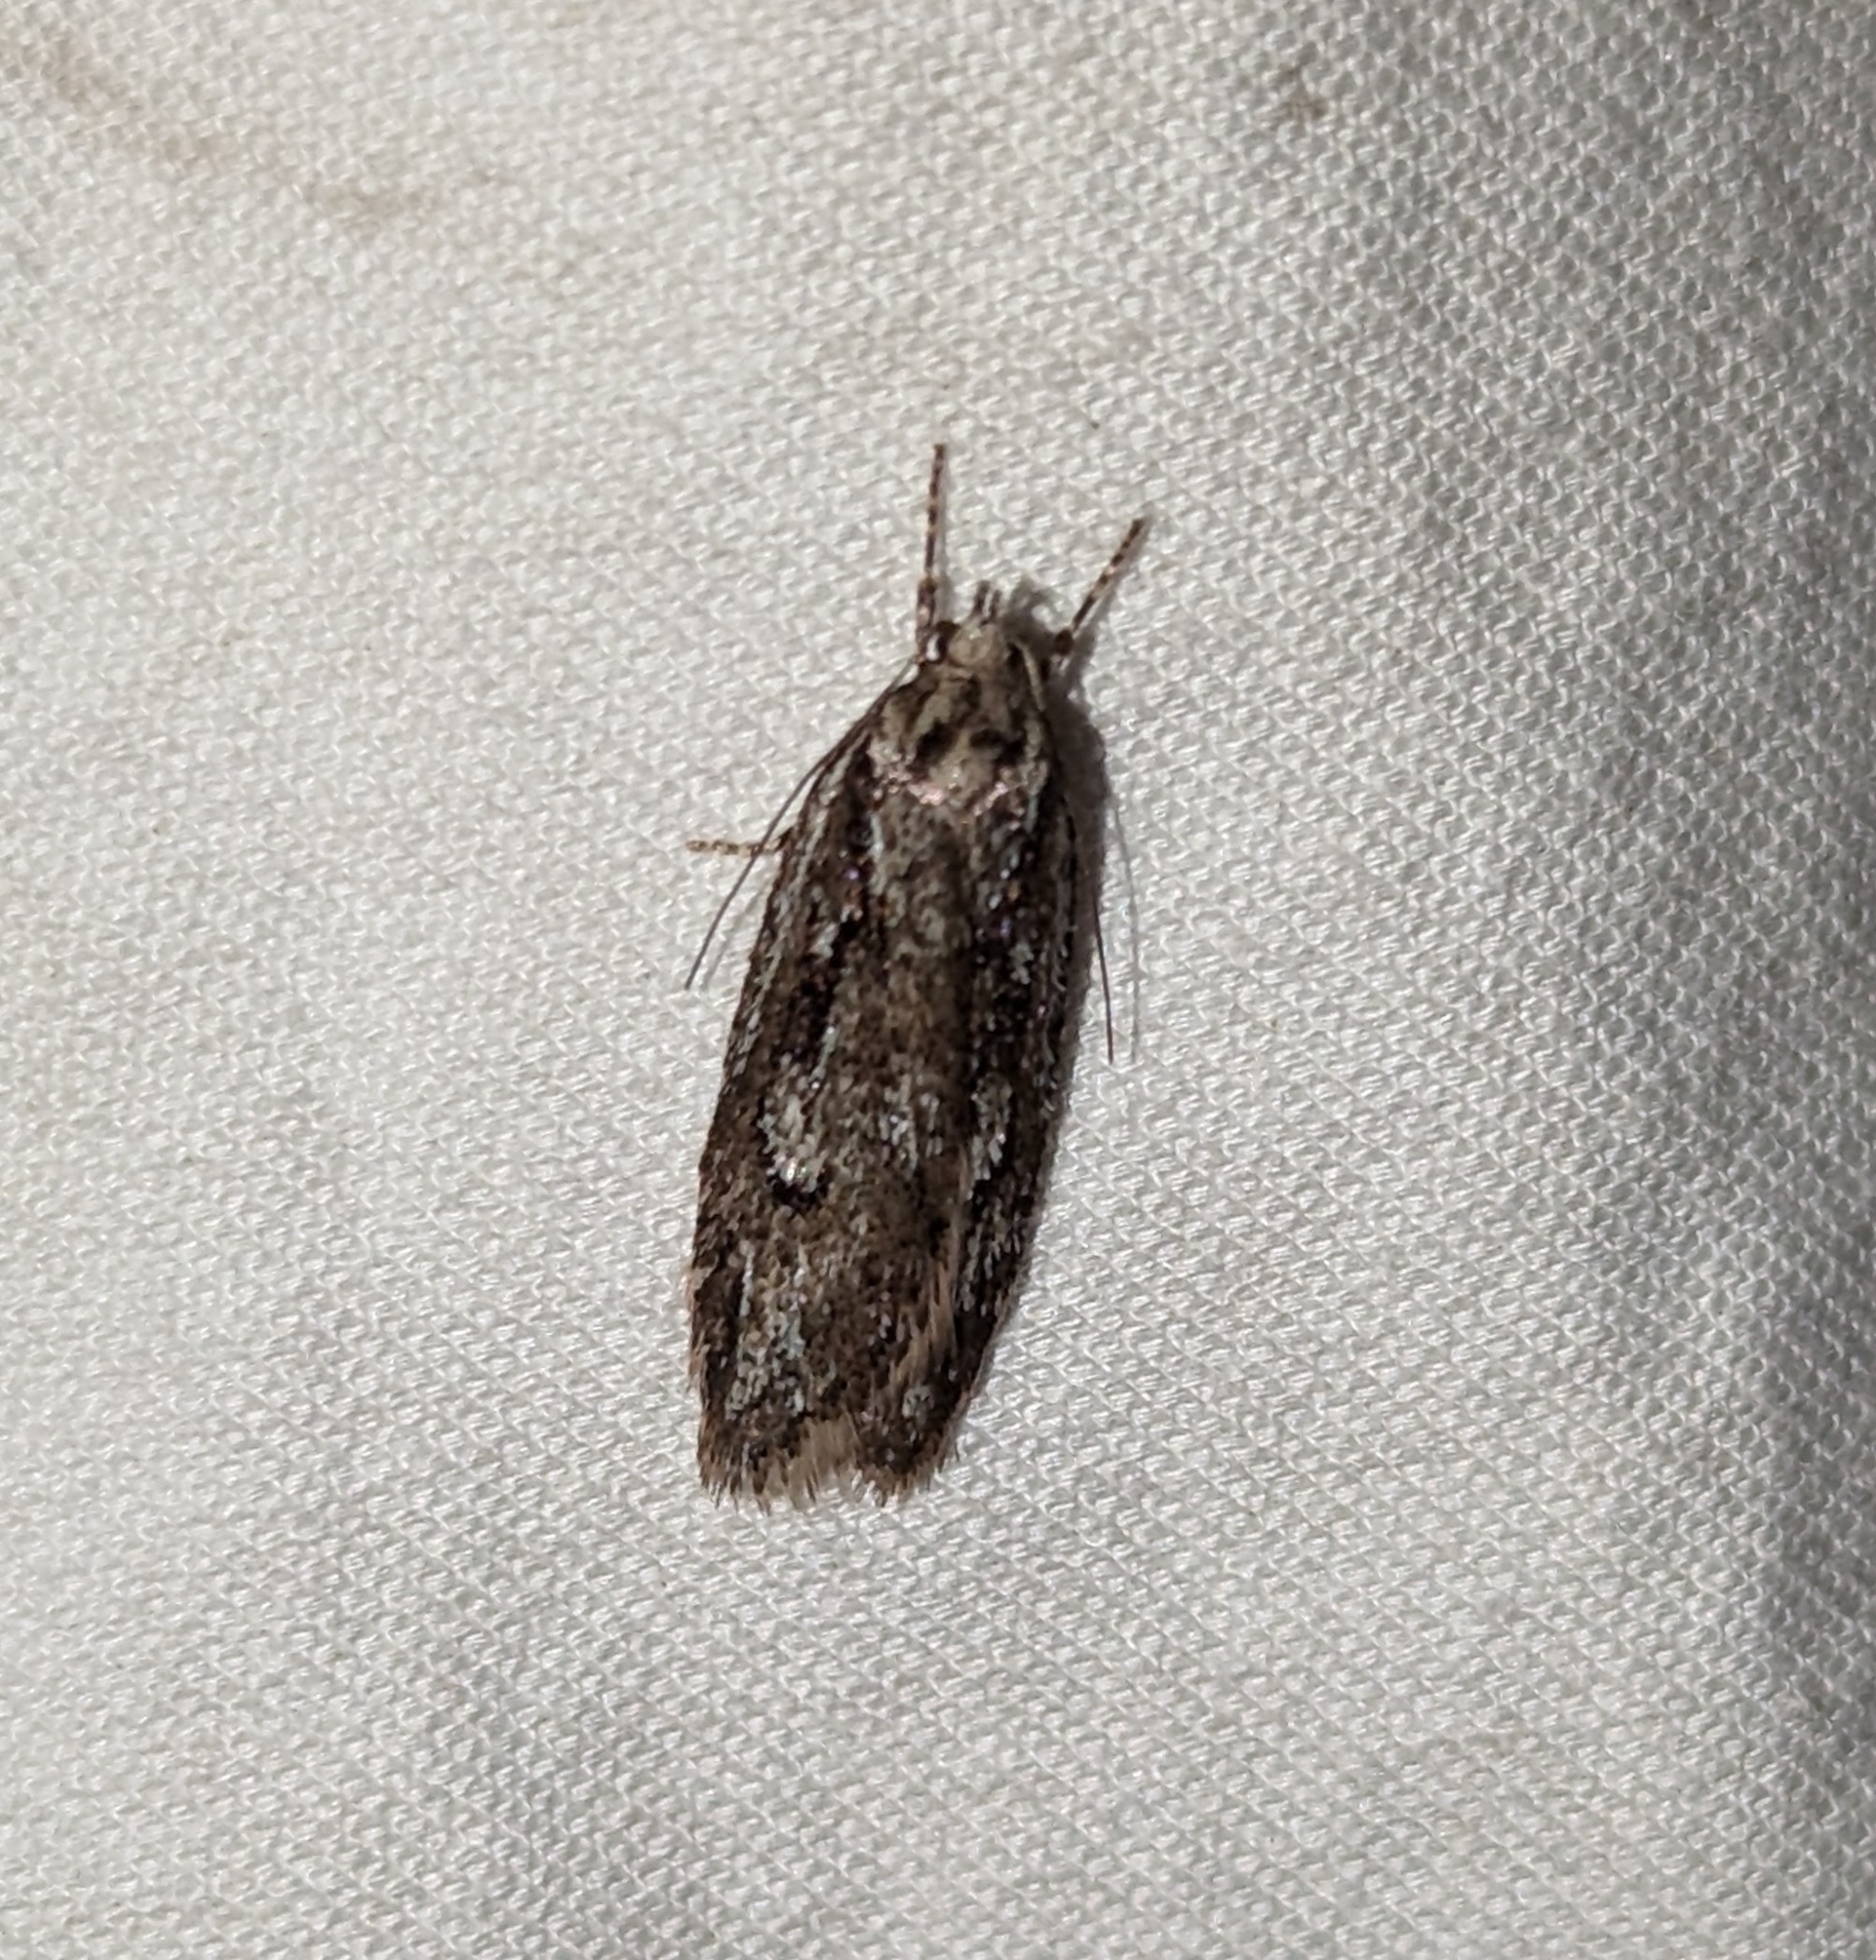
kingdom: Animalia
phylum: Arthropoda
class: Insecta
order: Lepidoptera
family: Depressariidae
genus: Semioscopis
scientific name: Semioscopis aurorella
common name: Aurora flatbody moth
